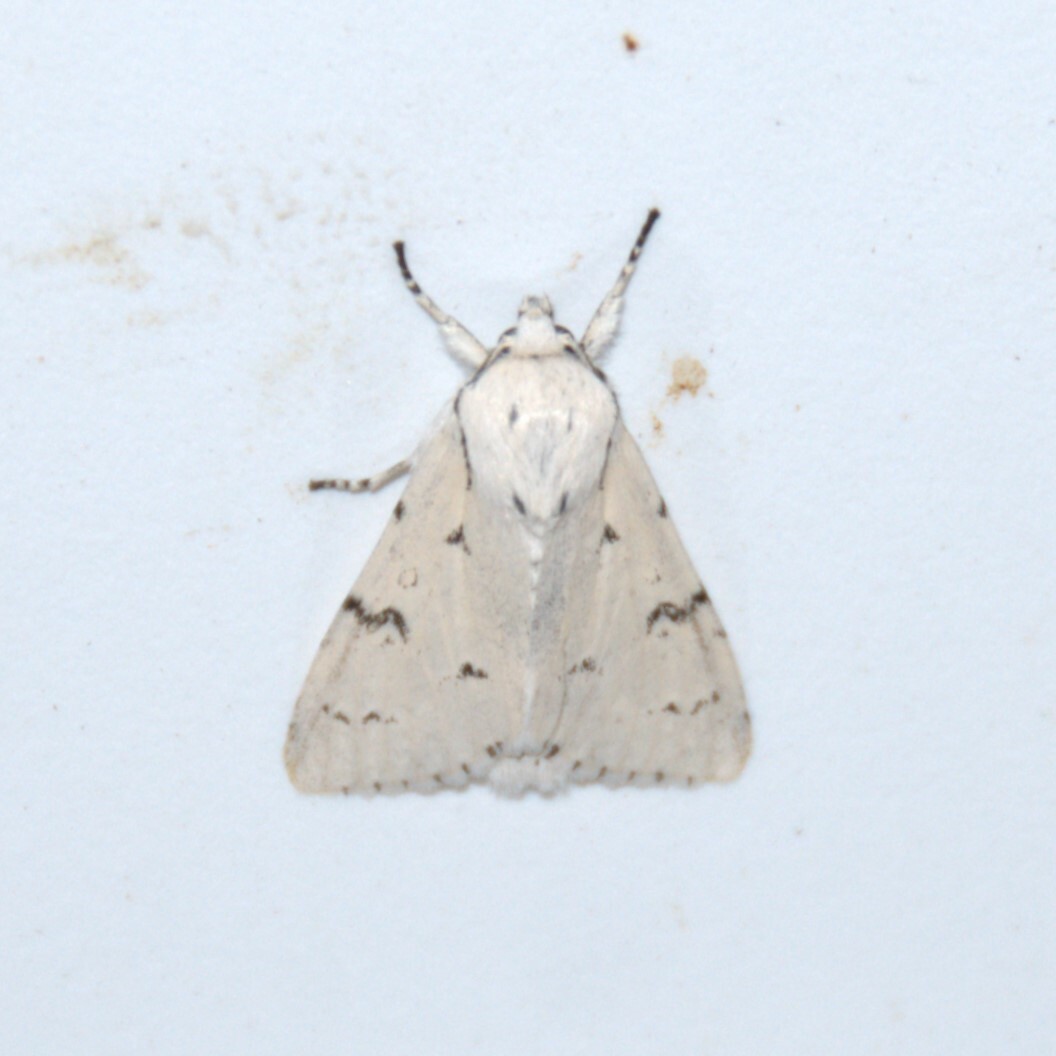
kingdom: Animalia
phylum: Arthropoda
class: Insecta
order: Lepidoptera
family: Noctuidae
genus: Acronicta
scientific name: Acronicta leporina
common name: Miller
